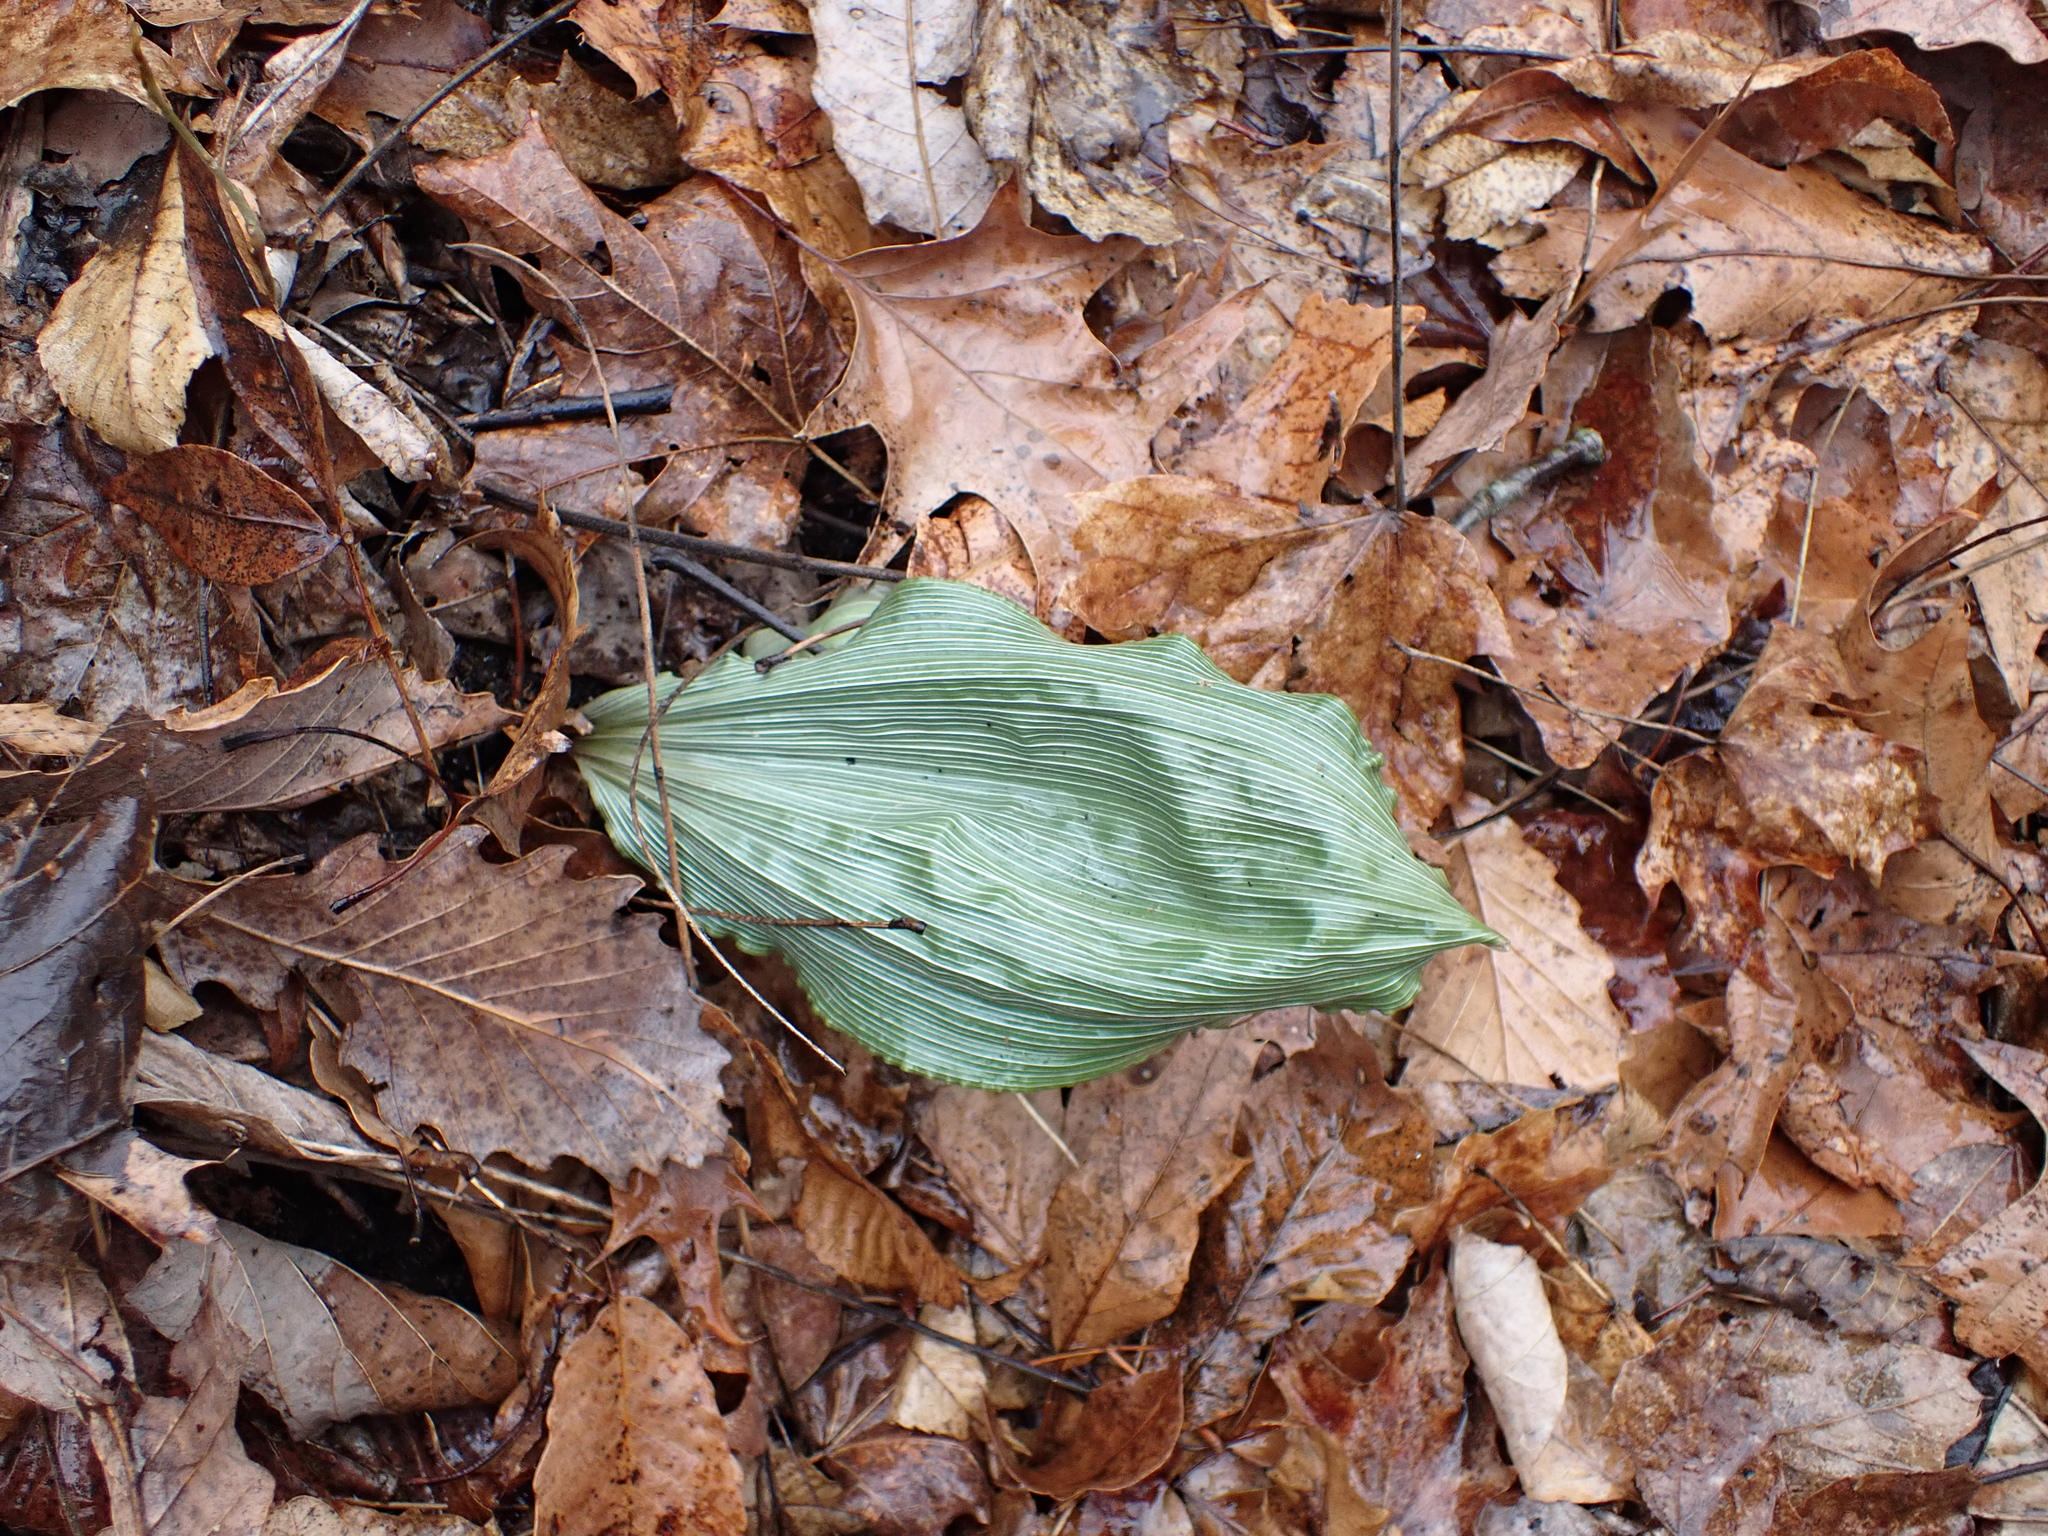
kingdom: Plantae
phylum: Tracheophyta
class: Liliopsida
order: Asparagales
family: Orchidaceae
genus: Aplectrum
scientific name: Aplectrum hyemale
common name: Adam-and-eve
